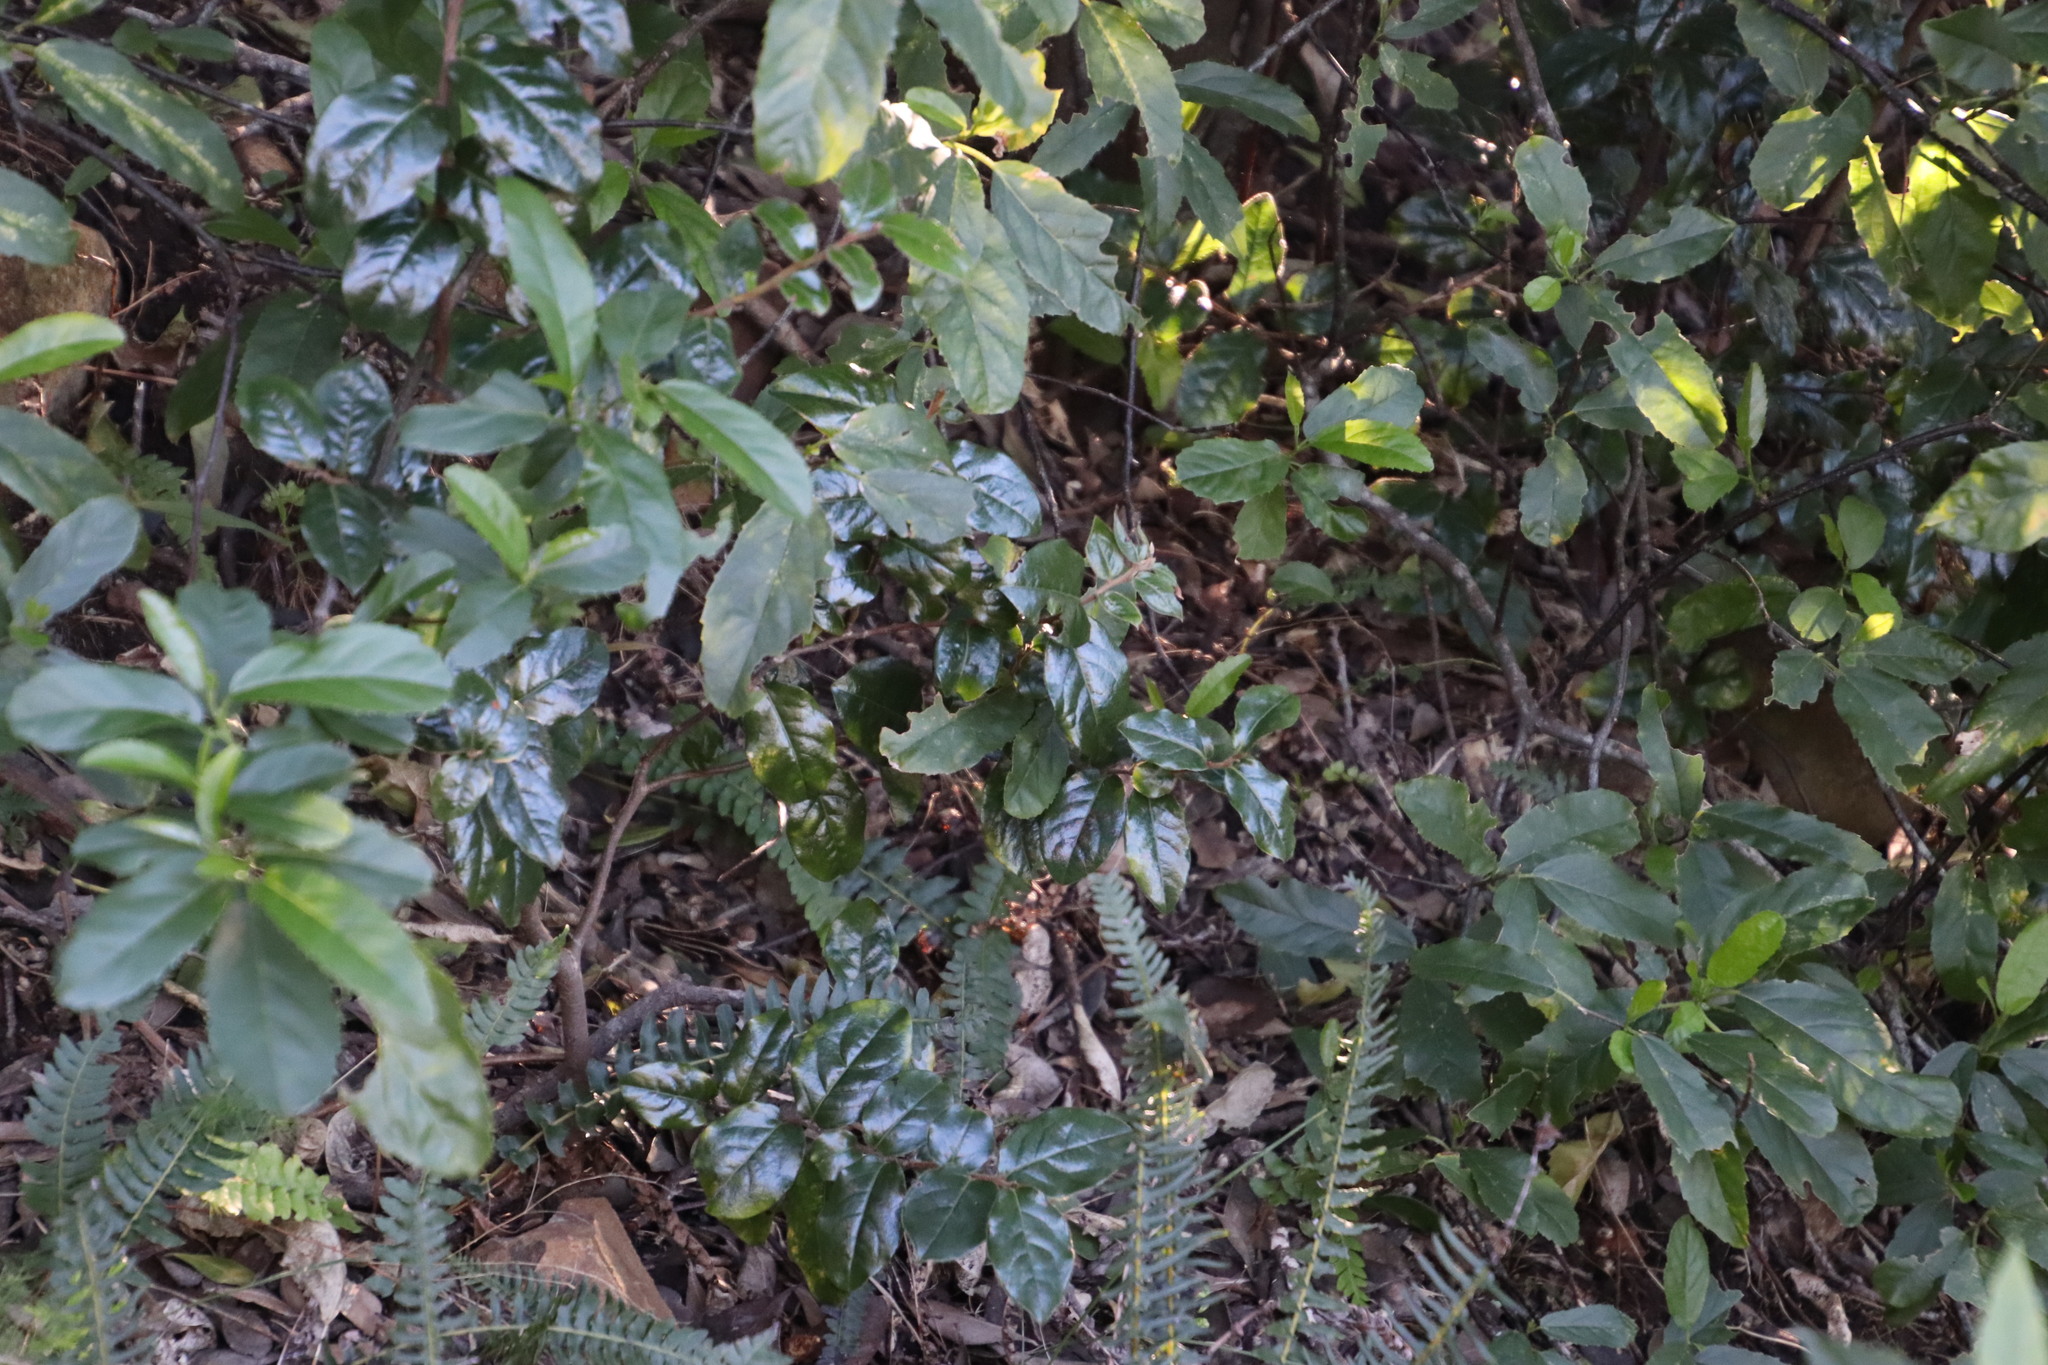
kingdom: Plantae
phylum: Tracheophyta
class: Magnoliopsida
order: Ericales
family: Ebenaceae
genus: Diospyros
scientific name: Diospyros whyteana
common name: Bladder-nut
